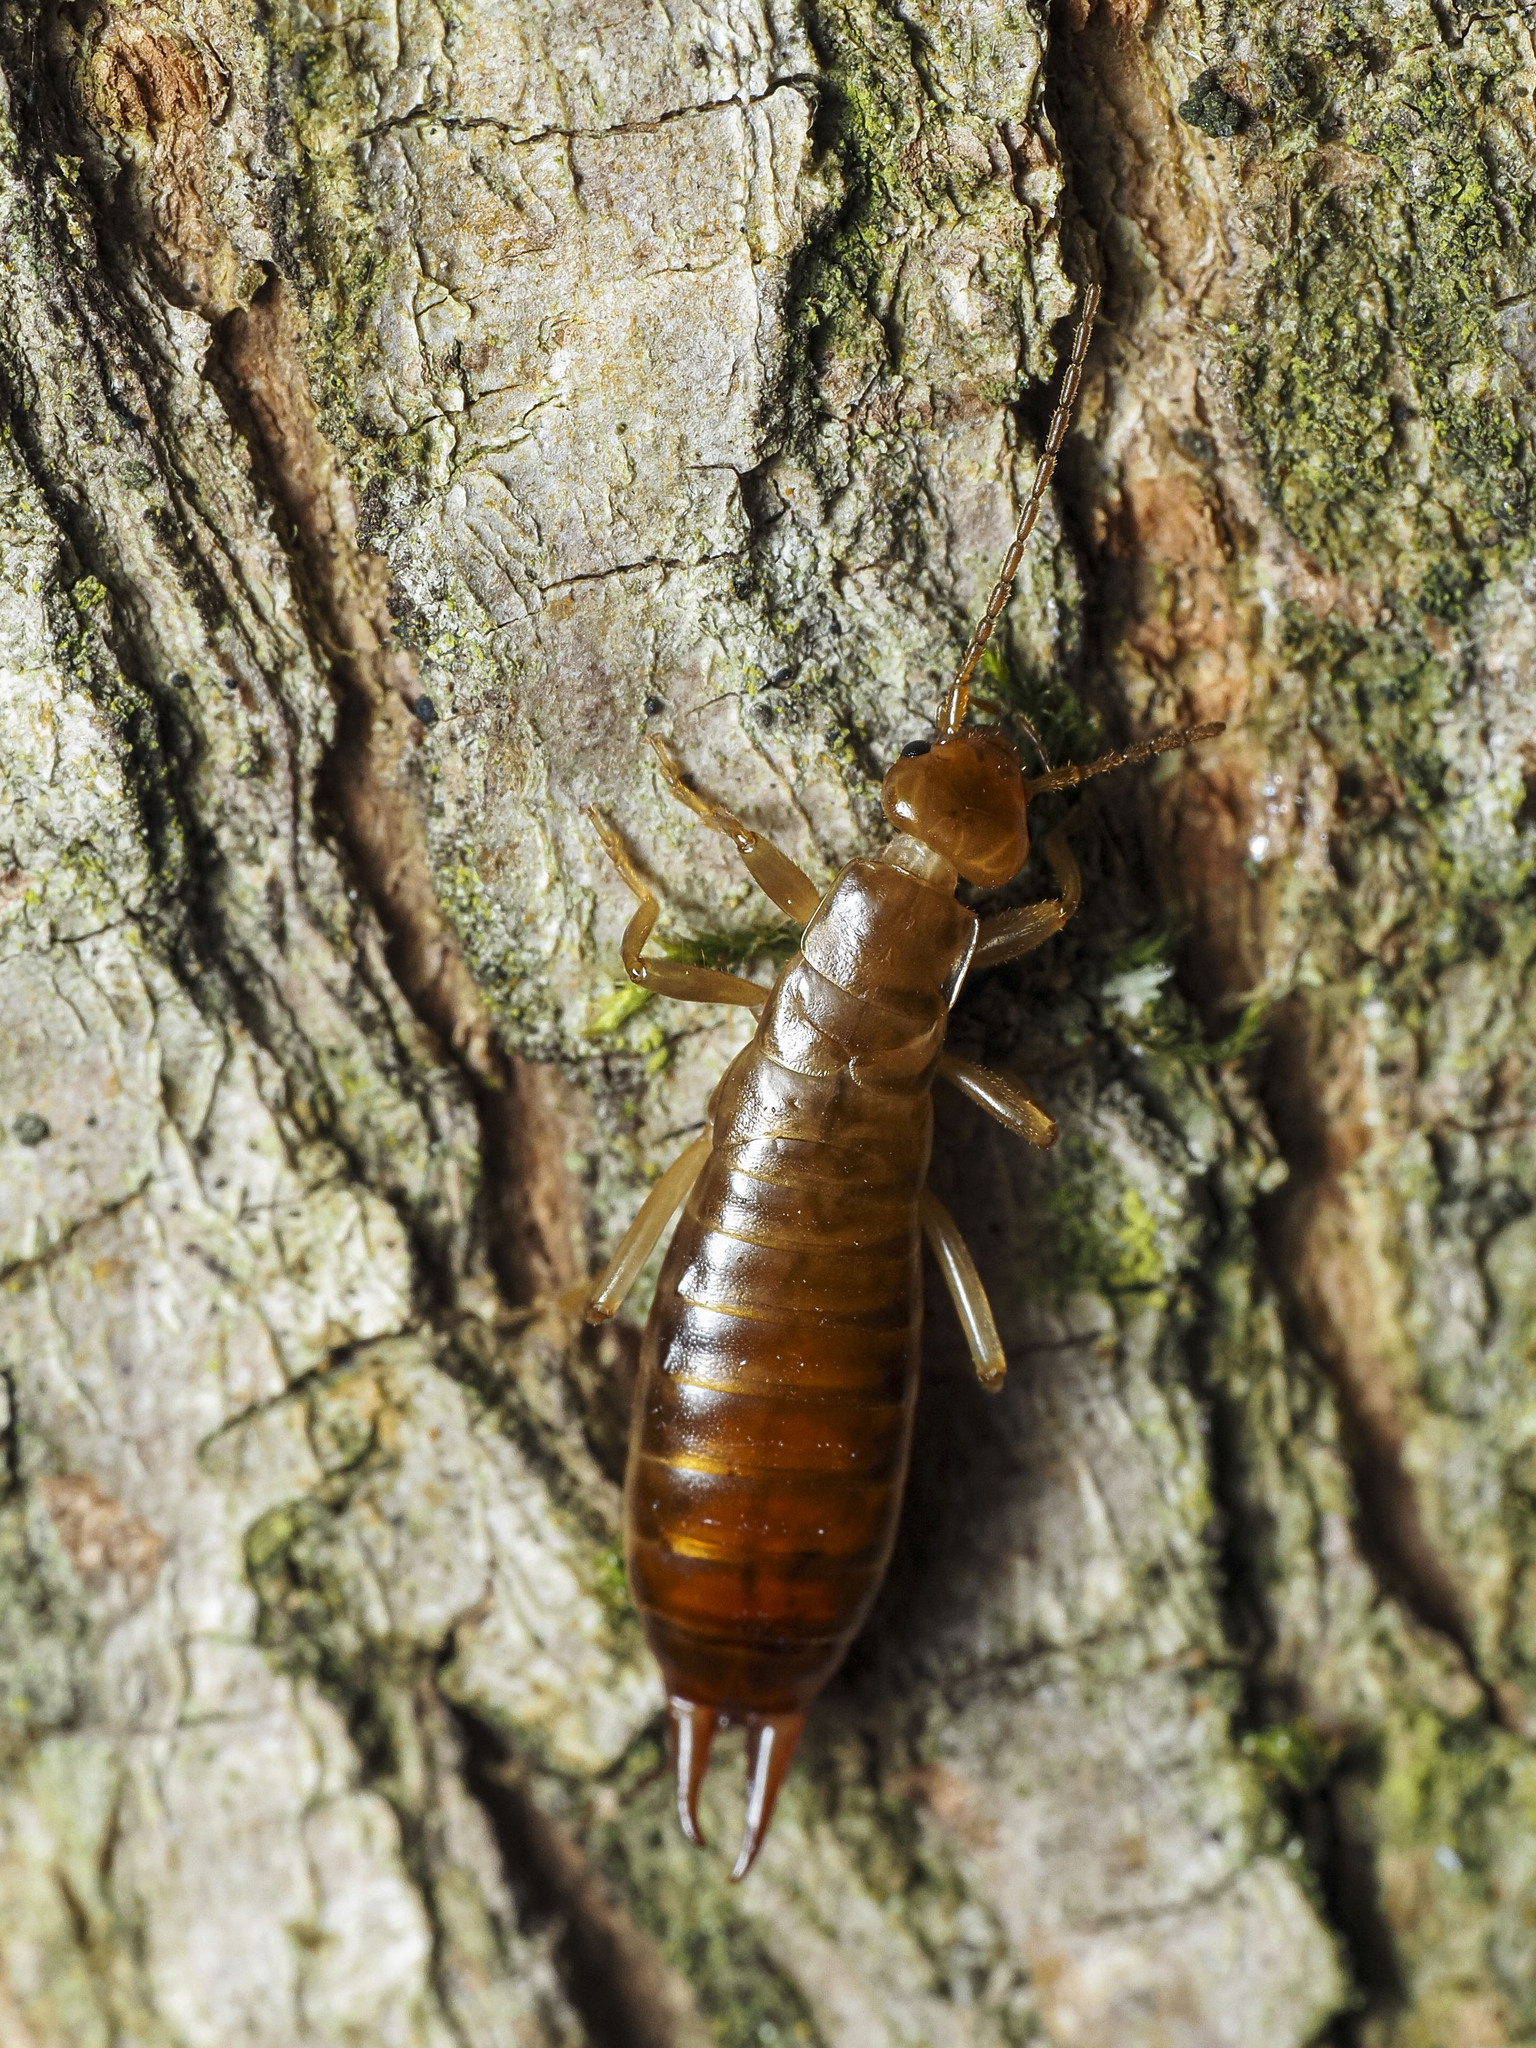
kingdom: Animalia
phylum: Arthropoda
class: Insecta
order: Dermaptera
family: Forficulidae
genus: Chelidurella
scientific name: Chelidurella acanthopygia
